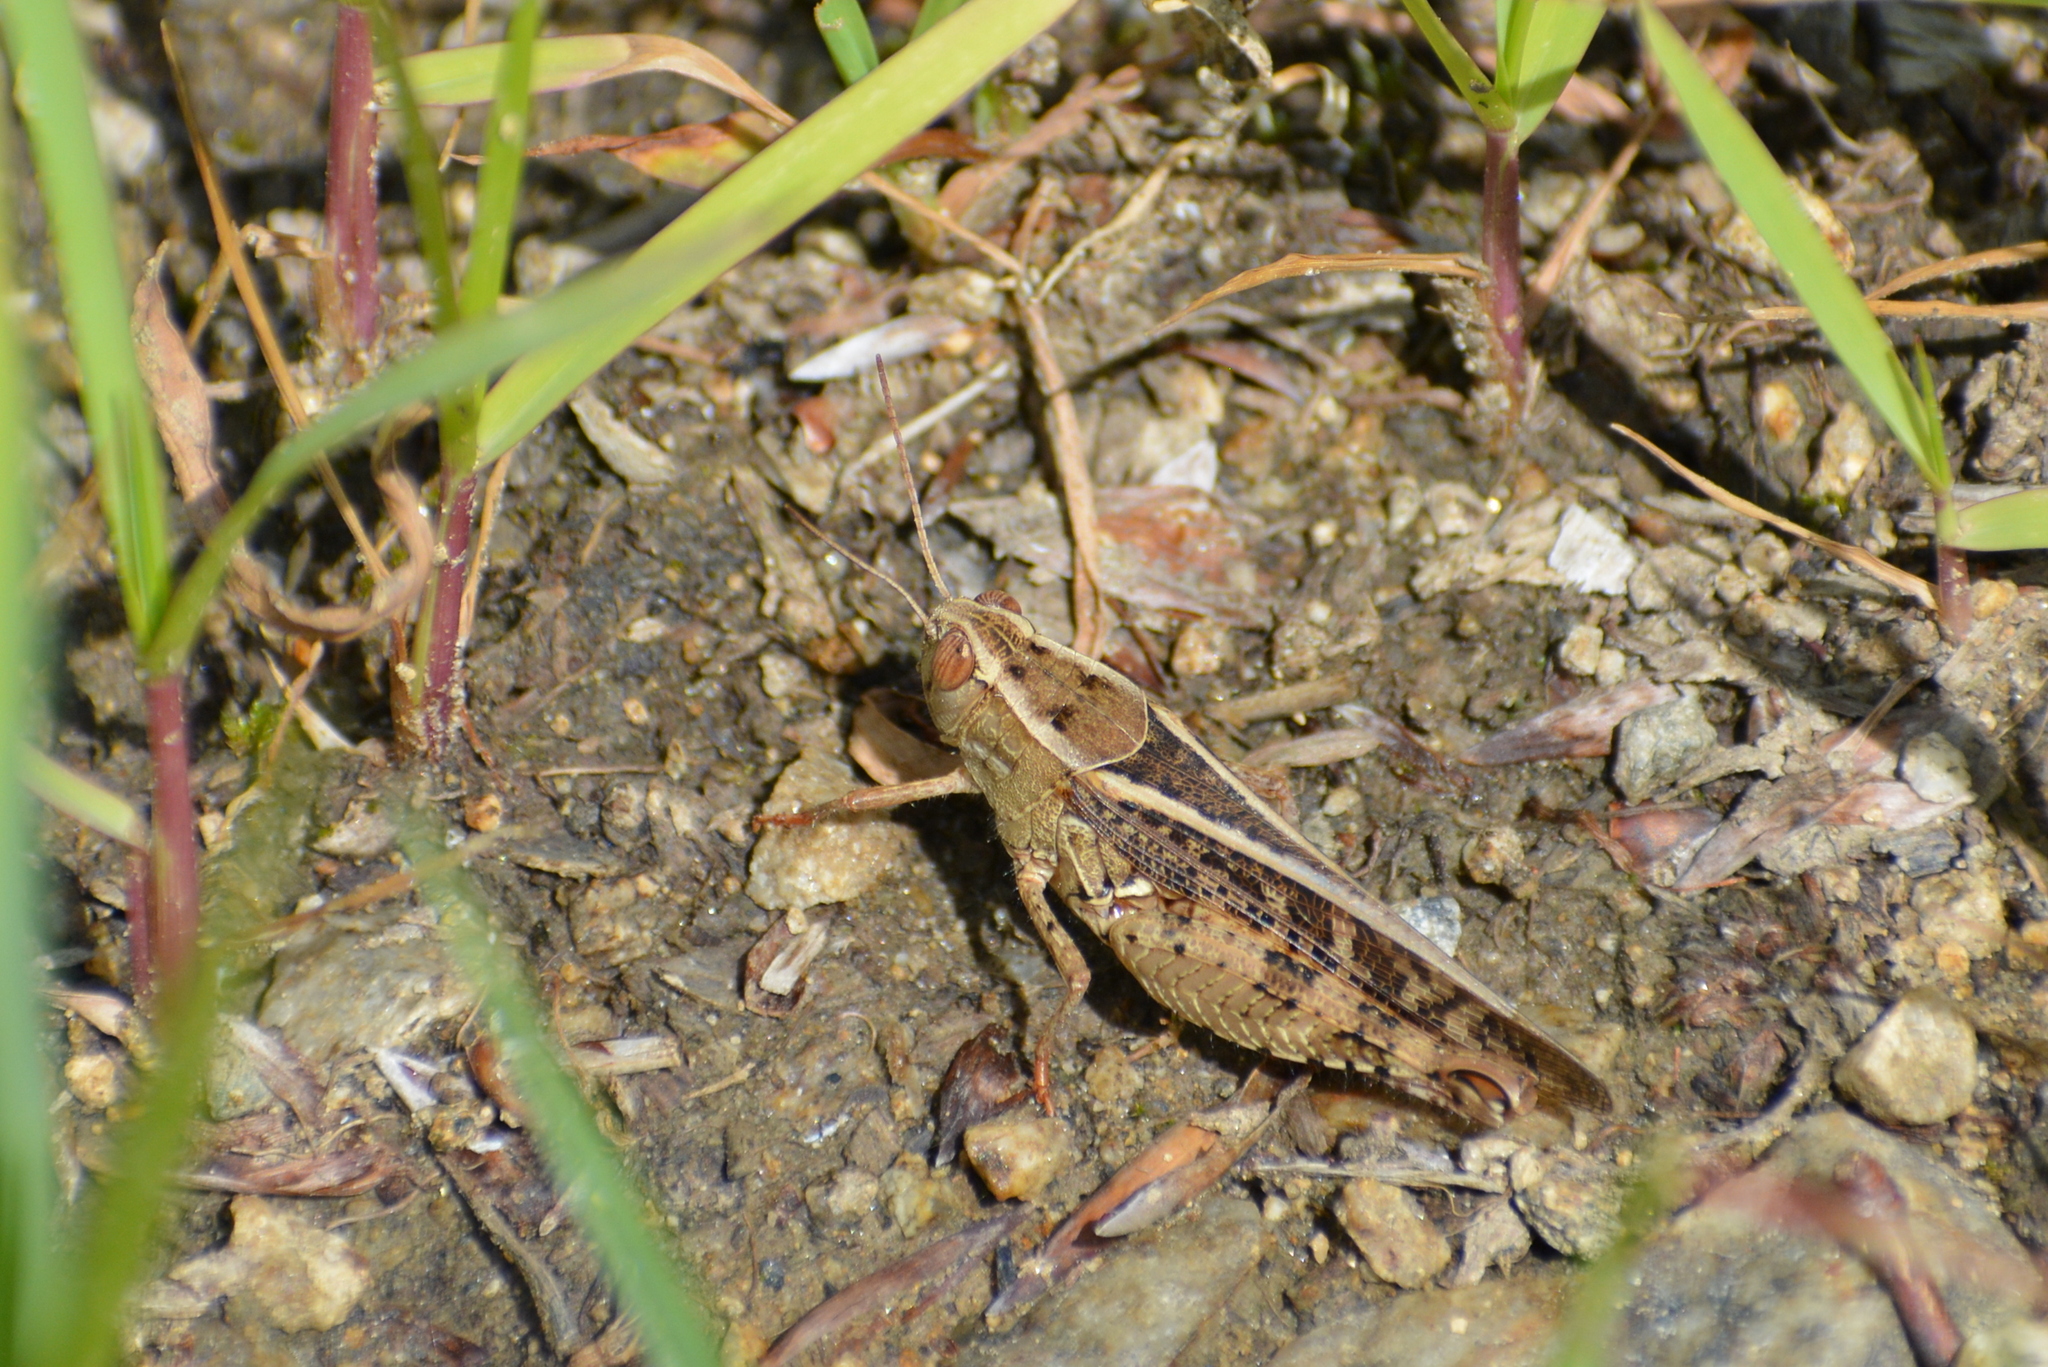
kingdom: Animalia
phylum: Arthropoda
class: Insecta
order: Orthoptera
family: Acrididae
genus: Calliptamus
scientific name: Calliptamus italicus
